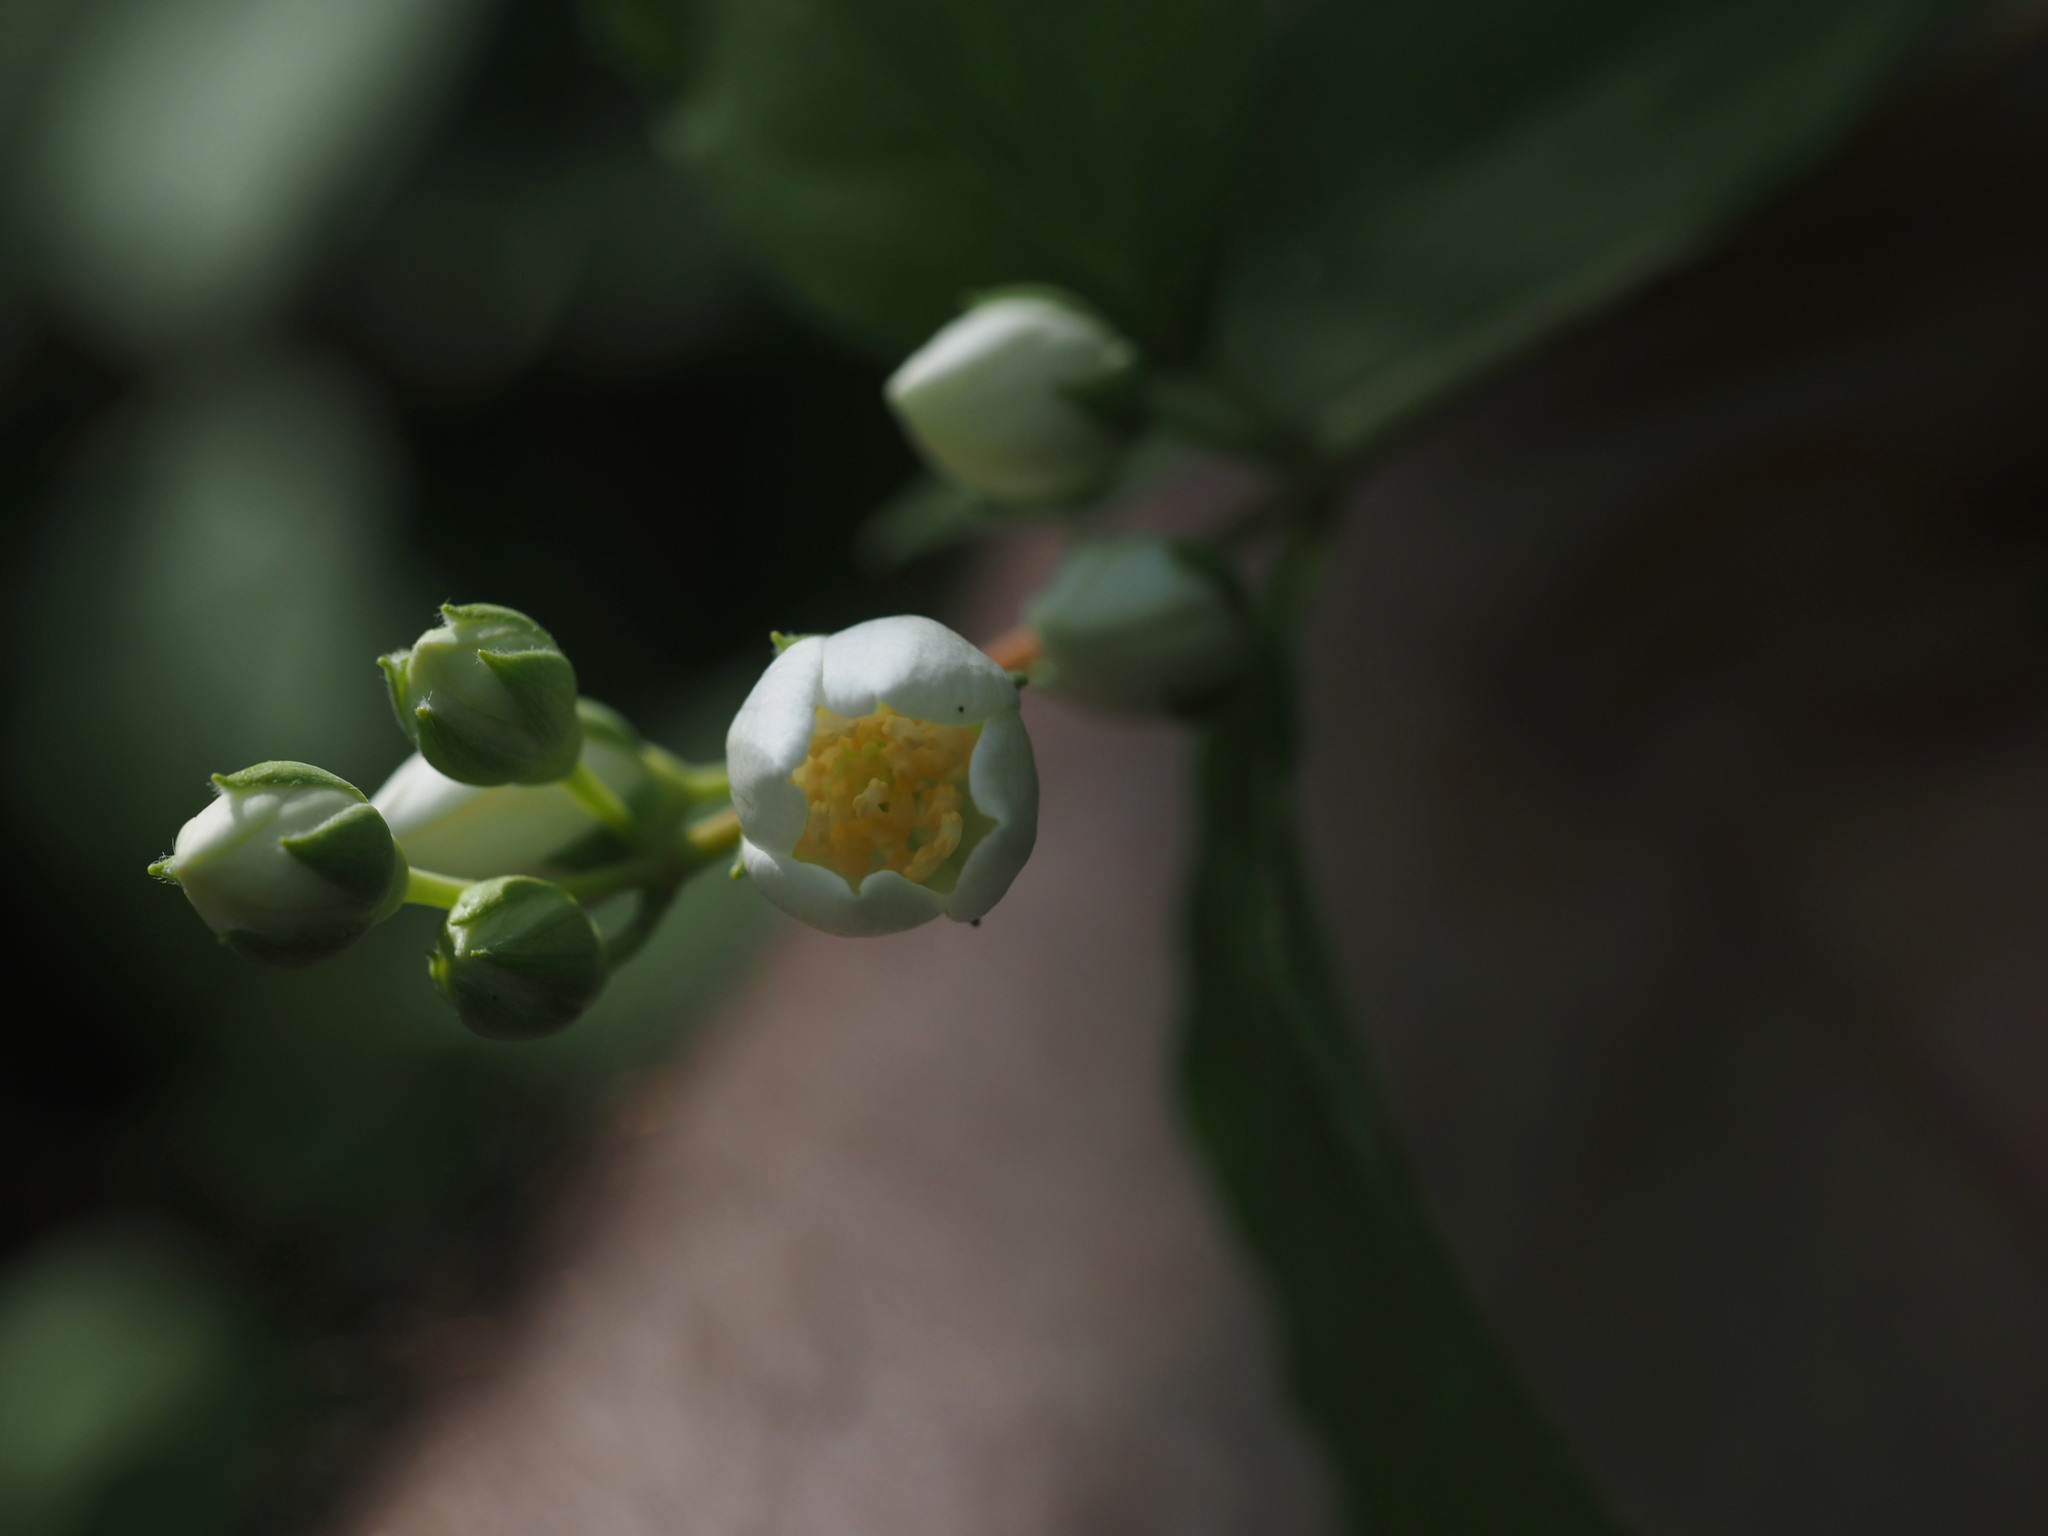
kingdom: Plantae
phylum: Tracheophyta
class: Magnoliopsida
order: Cornales
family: Hydrangeaceae
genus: Philadelphus
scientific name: Philadelphus lewisii
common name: Lewis's mock orange
